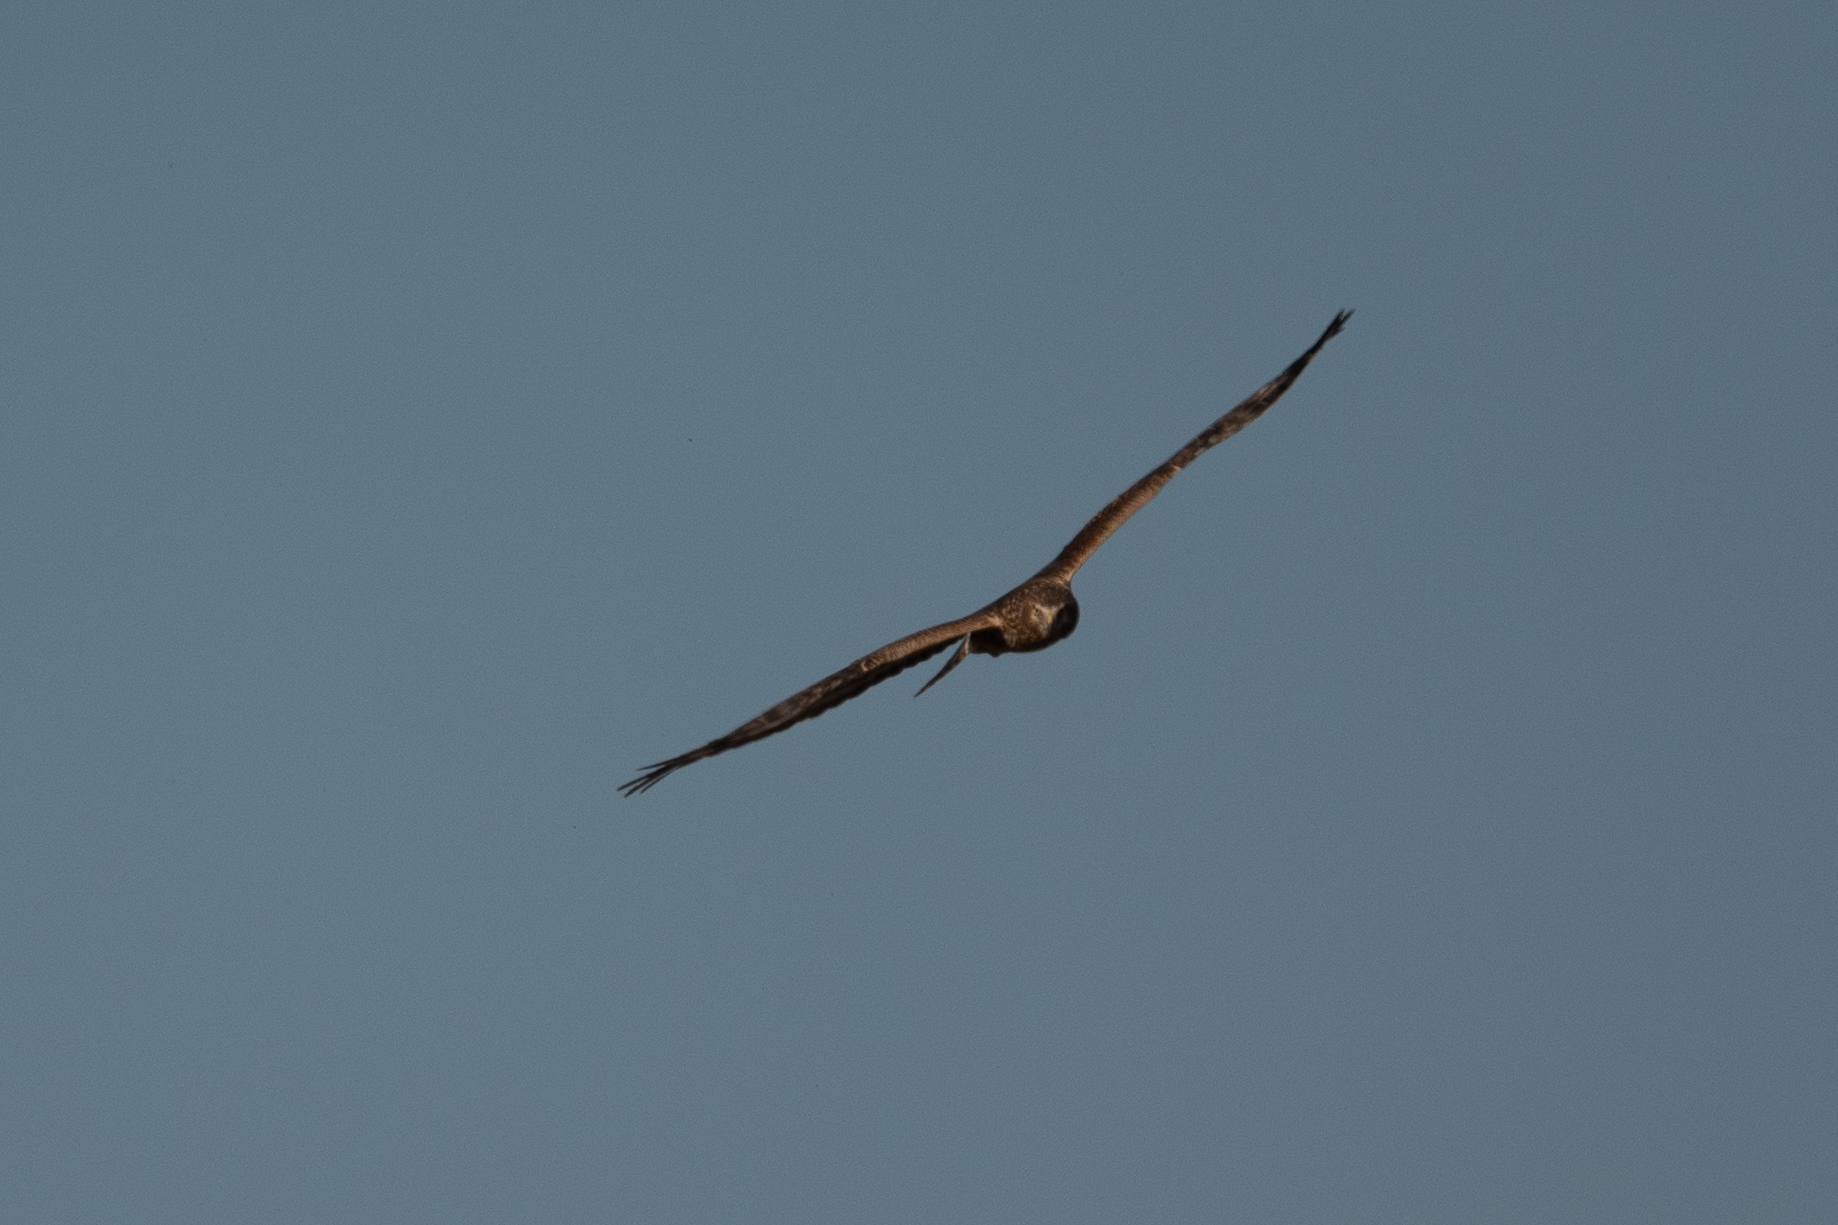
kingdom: Animalia
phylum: Chordata
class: Aves
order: Accipitriformes
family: Accipitridae
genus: Circus
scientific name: Circus cyaneus
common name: Hen harrier
